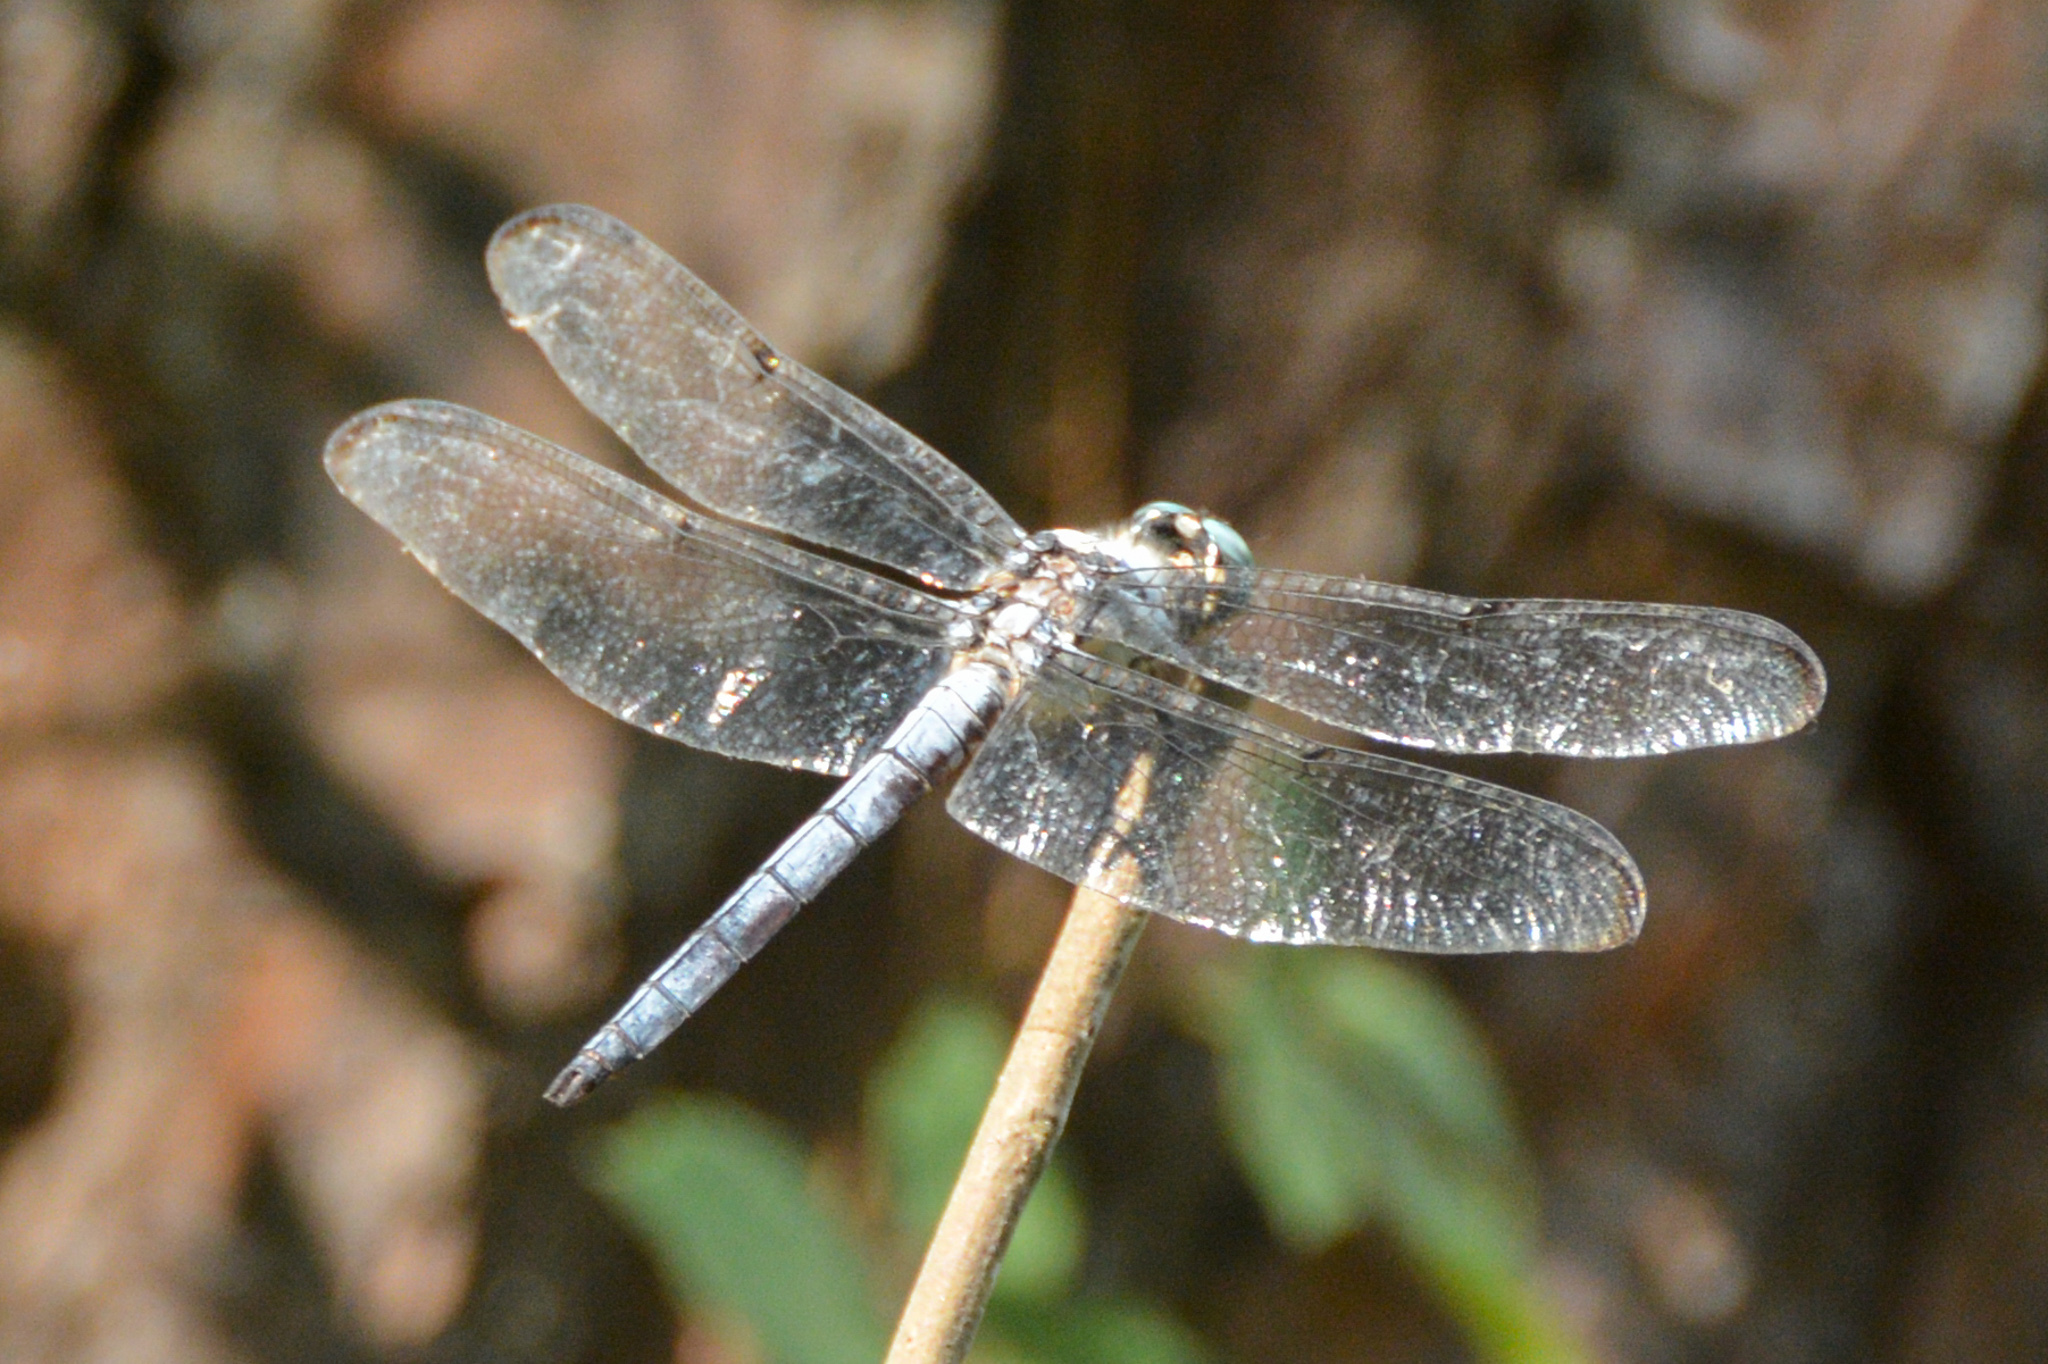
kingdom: Animalia
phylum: Arthropoda
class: Insecta
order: Odonata
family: Libellulidae
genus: Libellula
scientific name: Libellula vibrans
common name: Great blue skimmer
